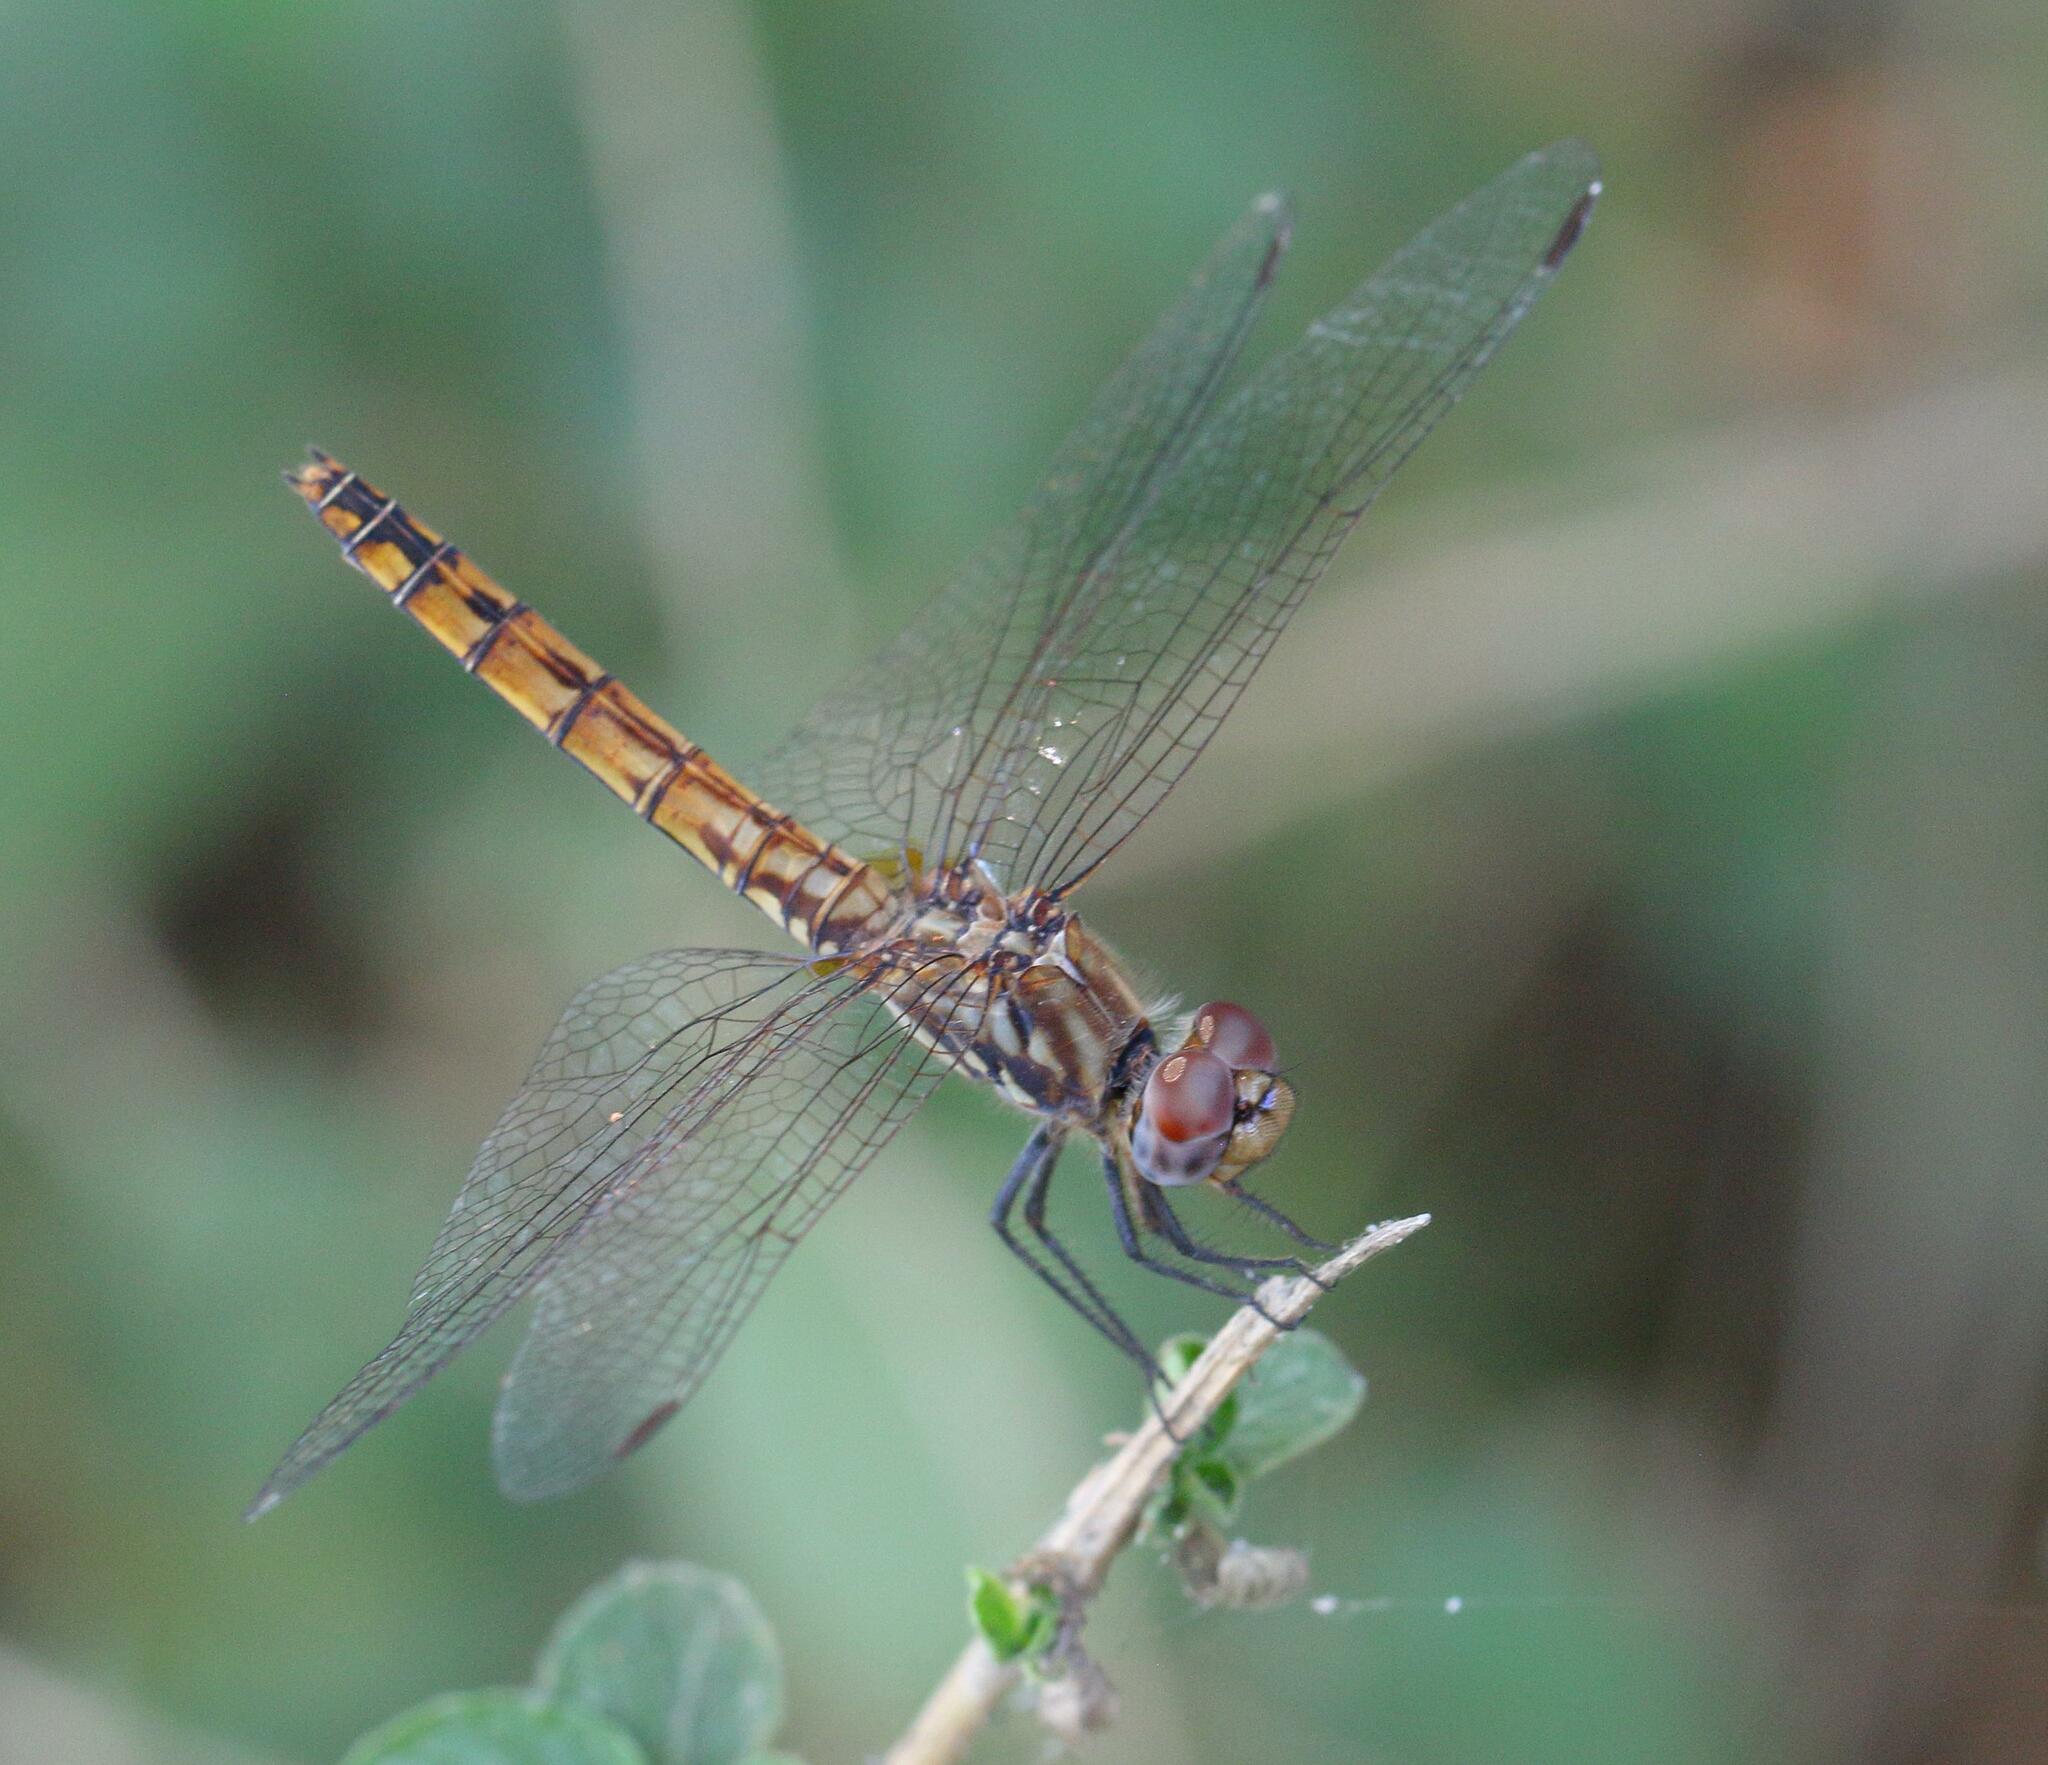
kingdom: Animalia
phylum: Arthropoda
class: Insecta
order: Odonata
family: Libellulidae
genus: Trithemis
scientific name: Trithemis annulata
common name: Violet dropwing
